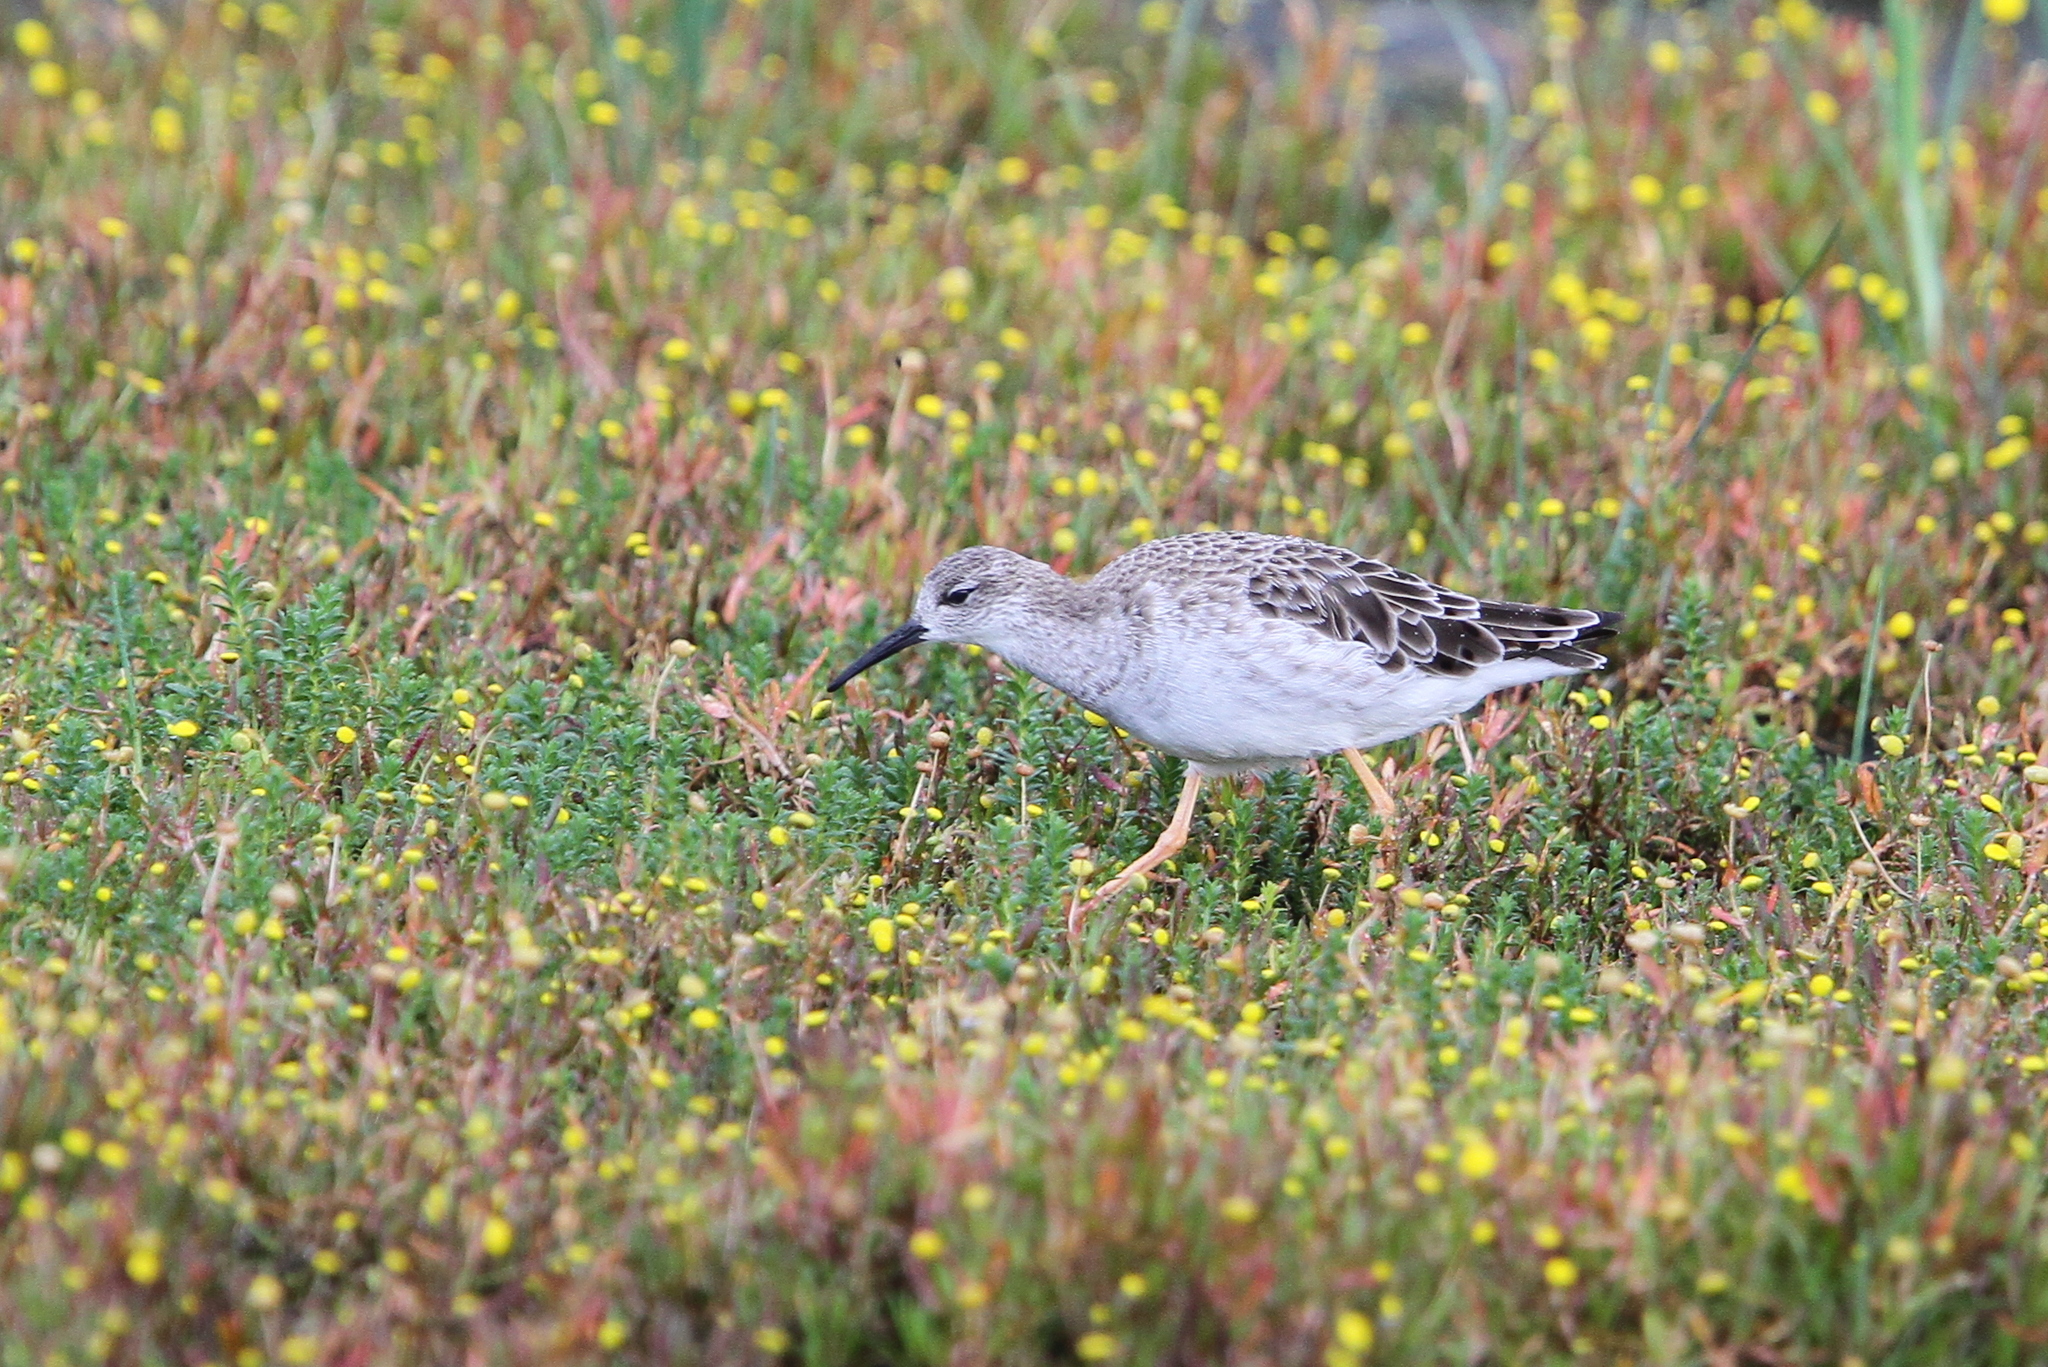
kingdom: Animalia
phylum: Chordata
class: Aves
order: Charadriiformes
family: Scolopacidae
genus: Calidris
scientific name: Calidris pugnax
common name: Ruff
